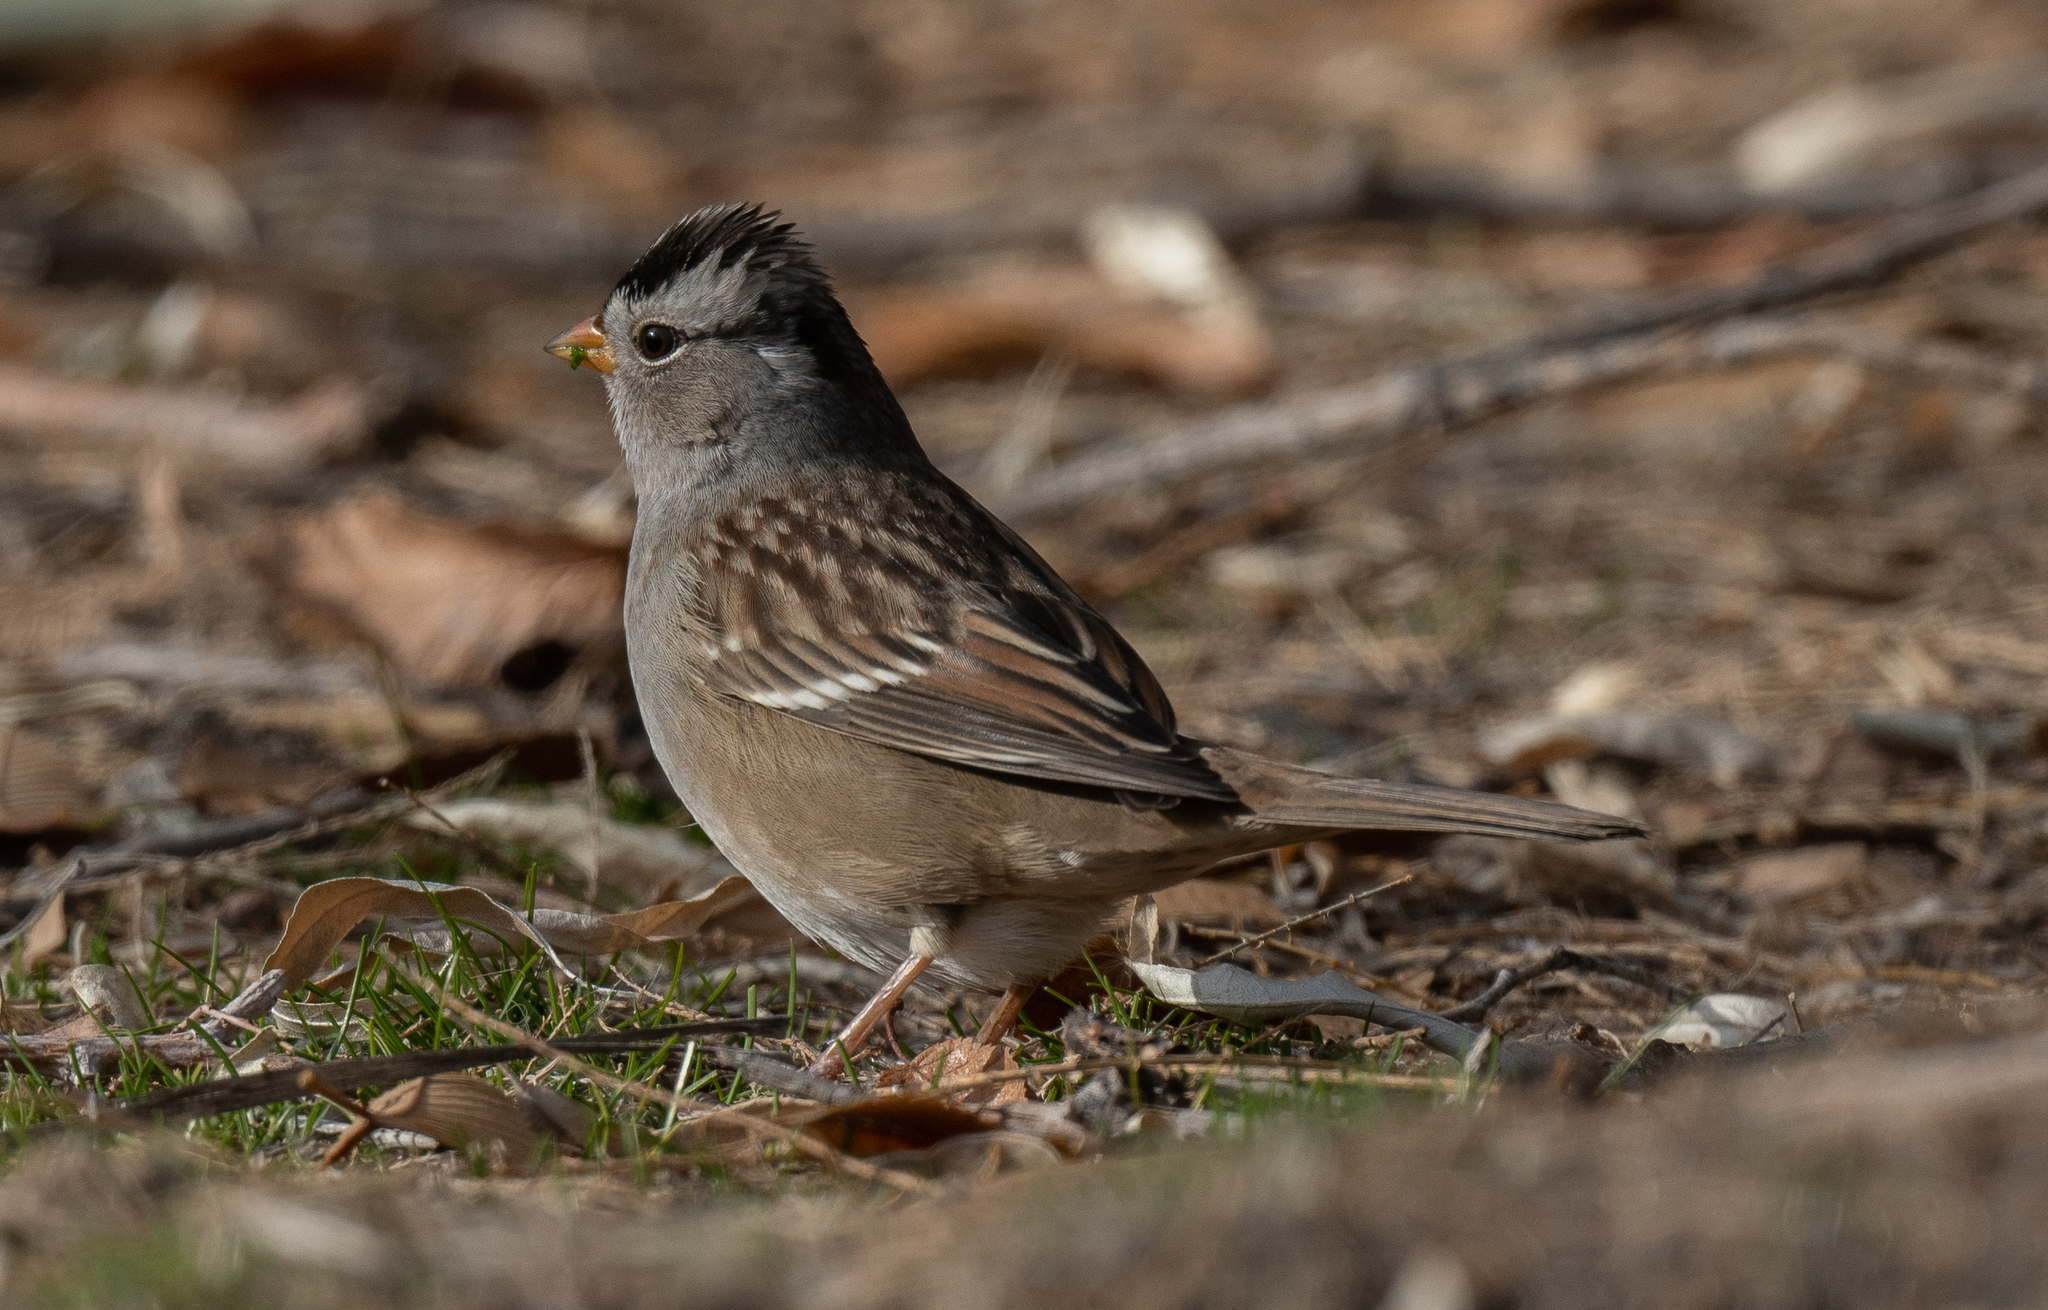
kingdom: Animalia
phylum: Chordata
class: Aves
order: Passeriformes
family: Passerellidae
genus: Zonotrichia
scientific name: Zonotrichia leucophrys
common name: White-crowned sparrow
